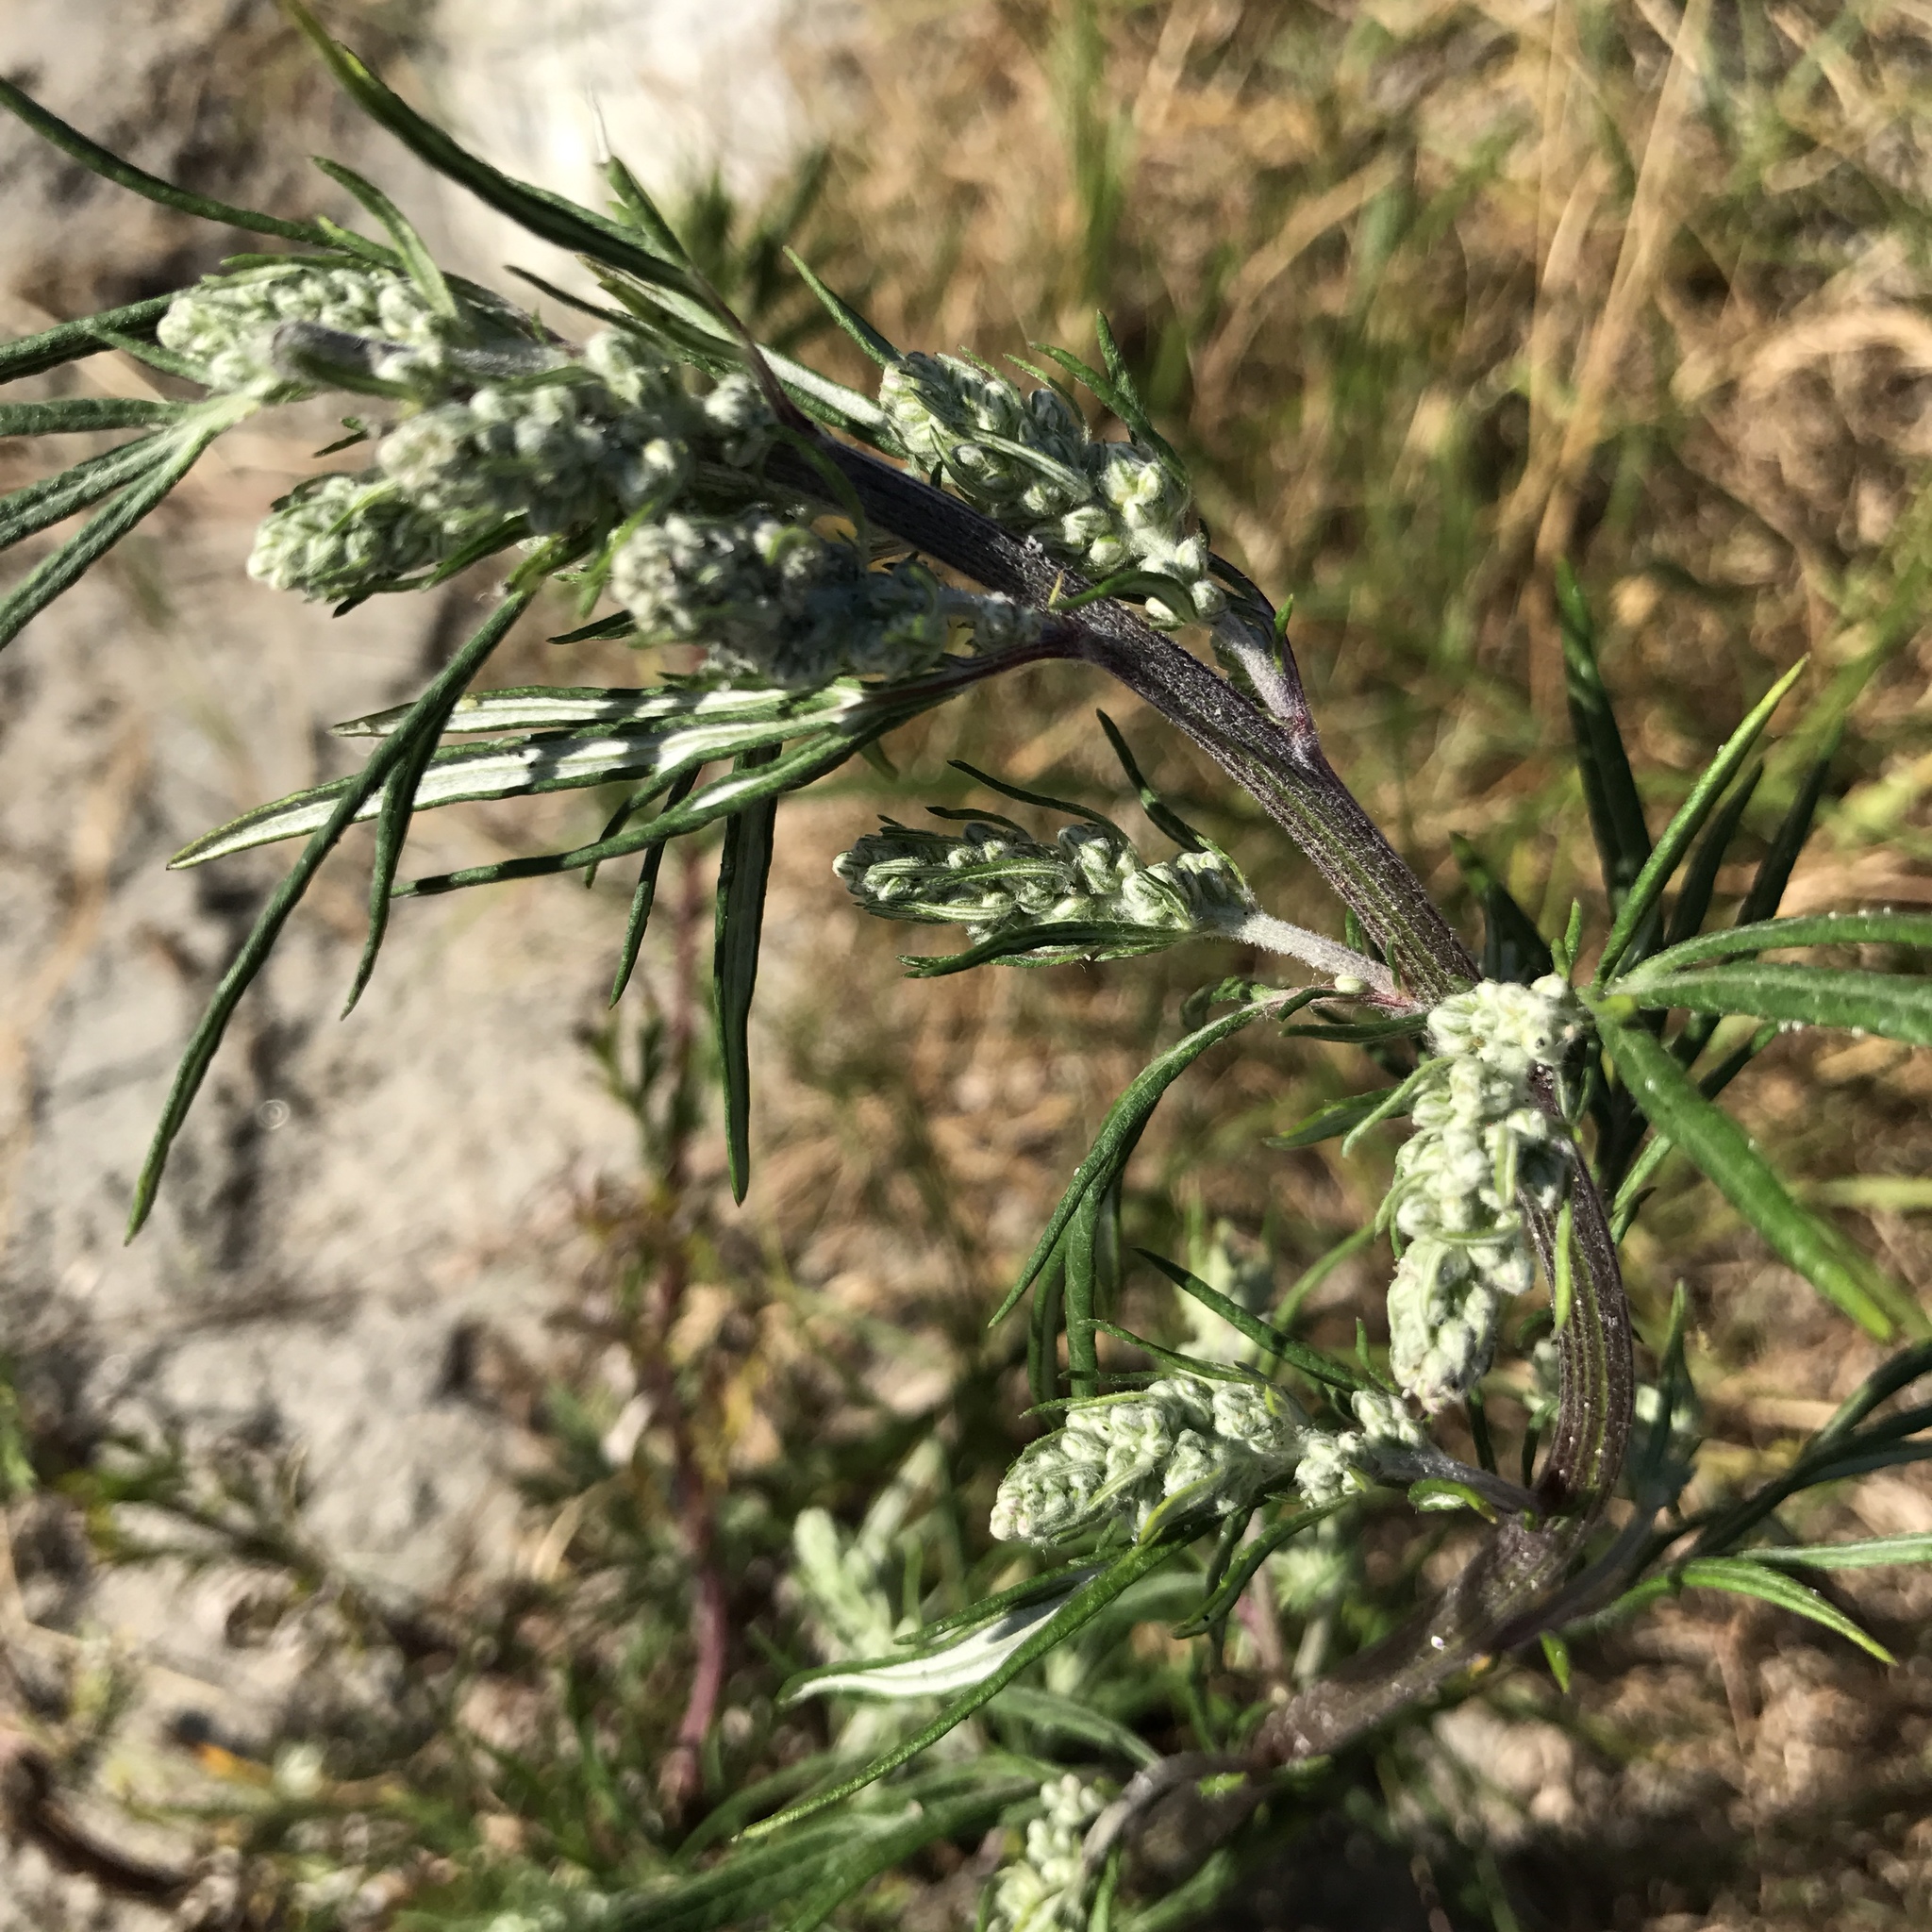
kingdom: Plantae
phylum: Tracheophyta
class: Magnoliopsida
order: Asterales
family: Asteraceae
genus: Artemisia
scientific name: Artemisia vulgaris
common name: Mugwort
